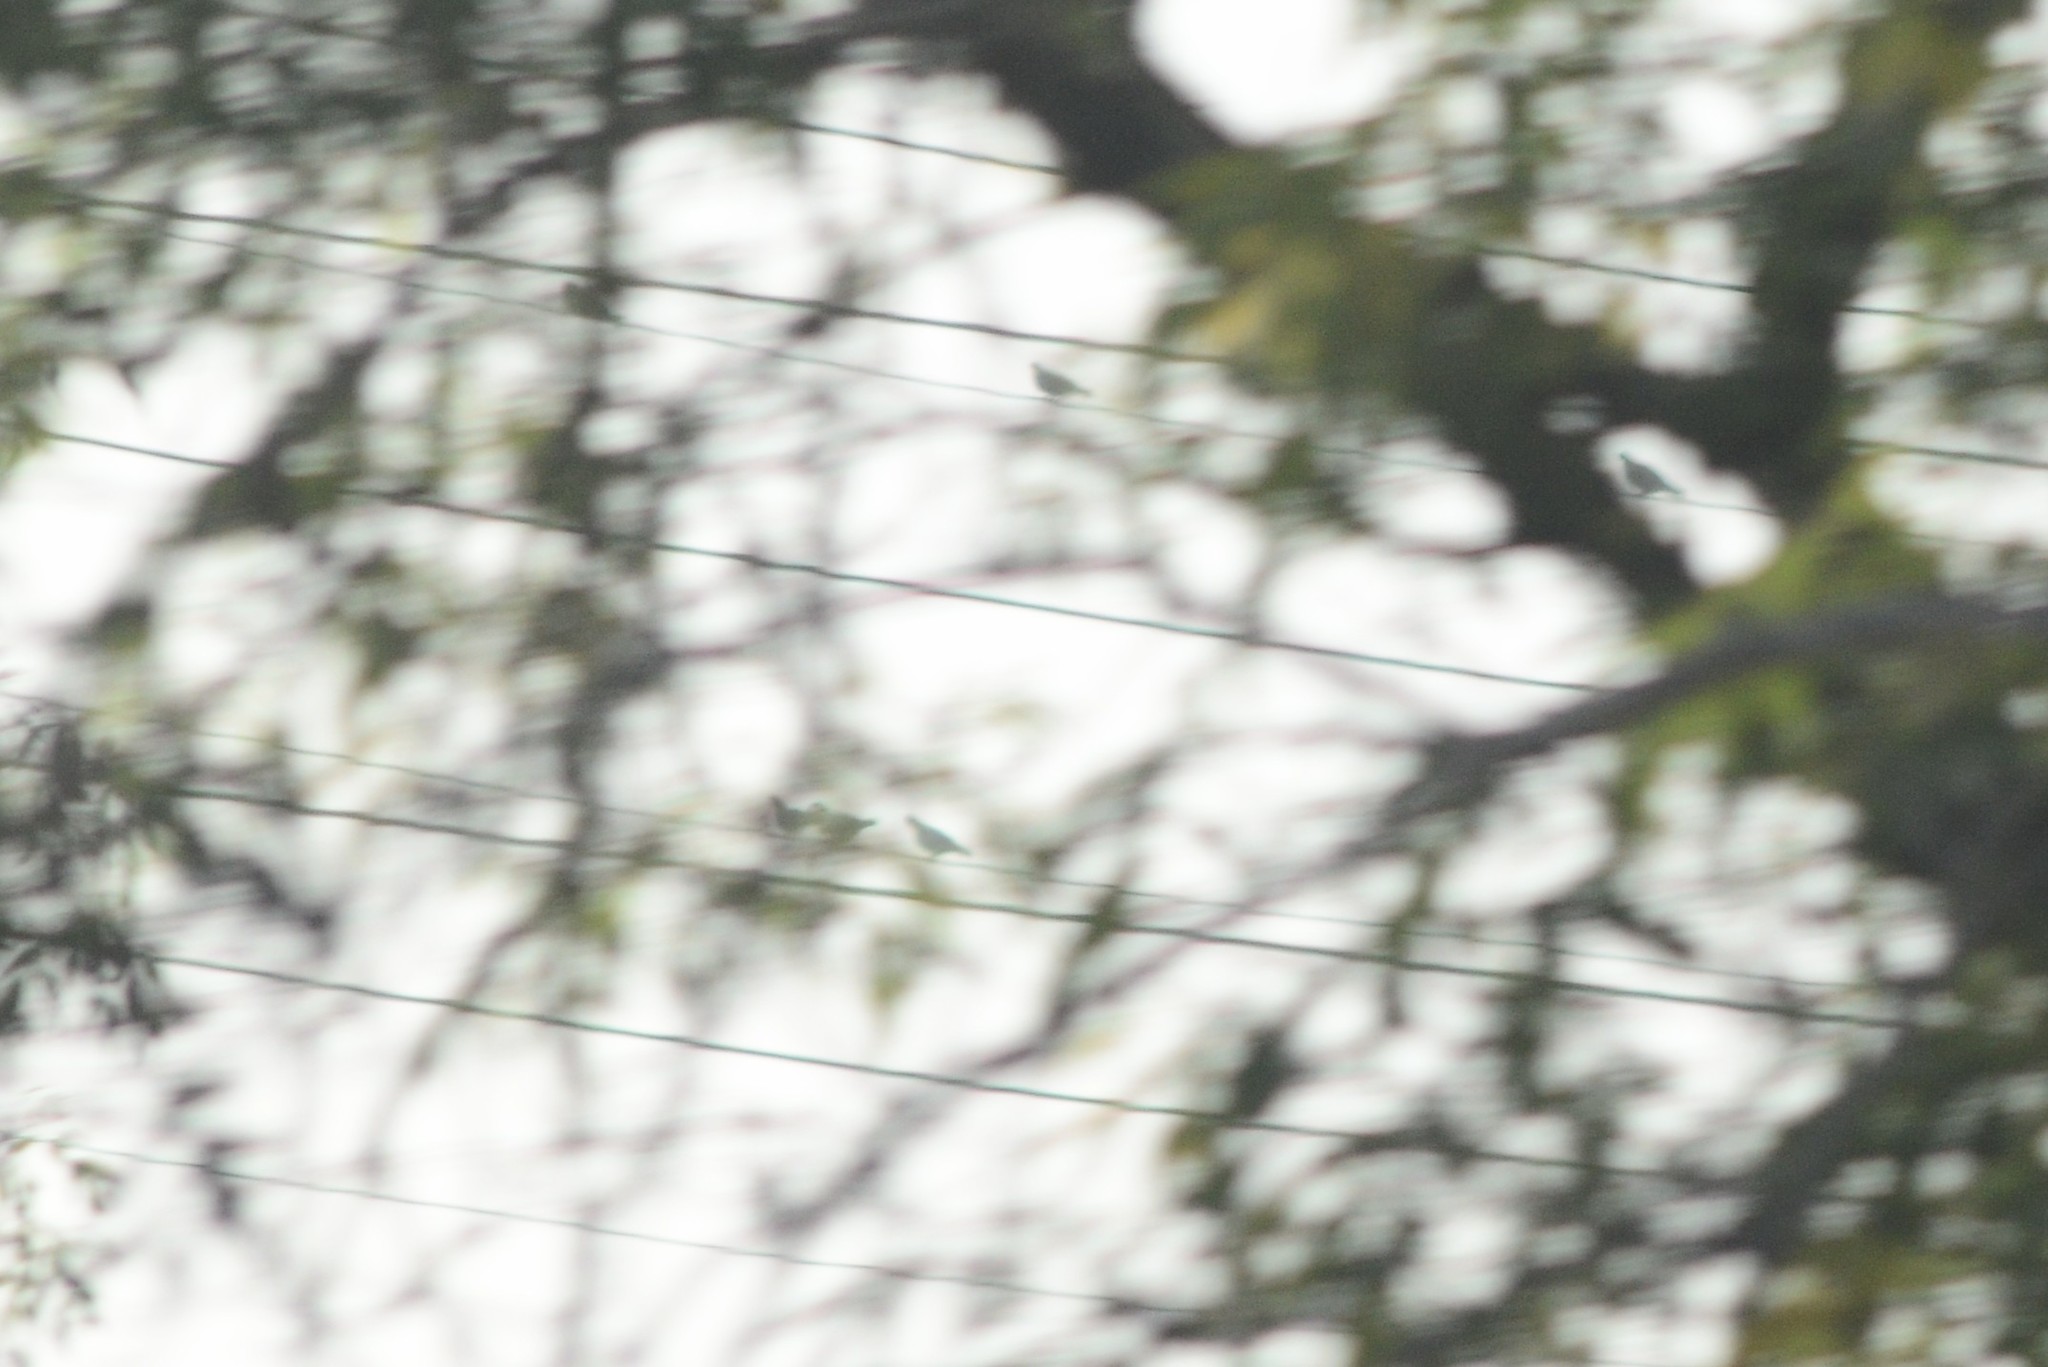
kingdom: Animalia
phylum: Chordata
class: Aves
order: Columbiformes
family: Columbidae
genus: Columba
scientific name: Columba livia
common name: Rock pigeon
